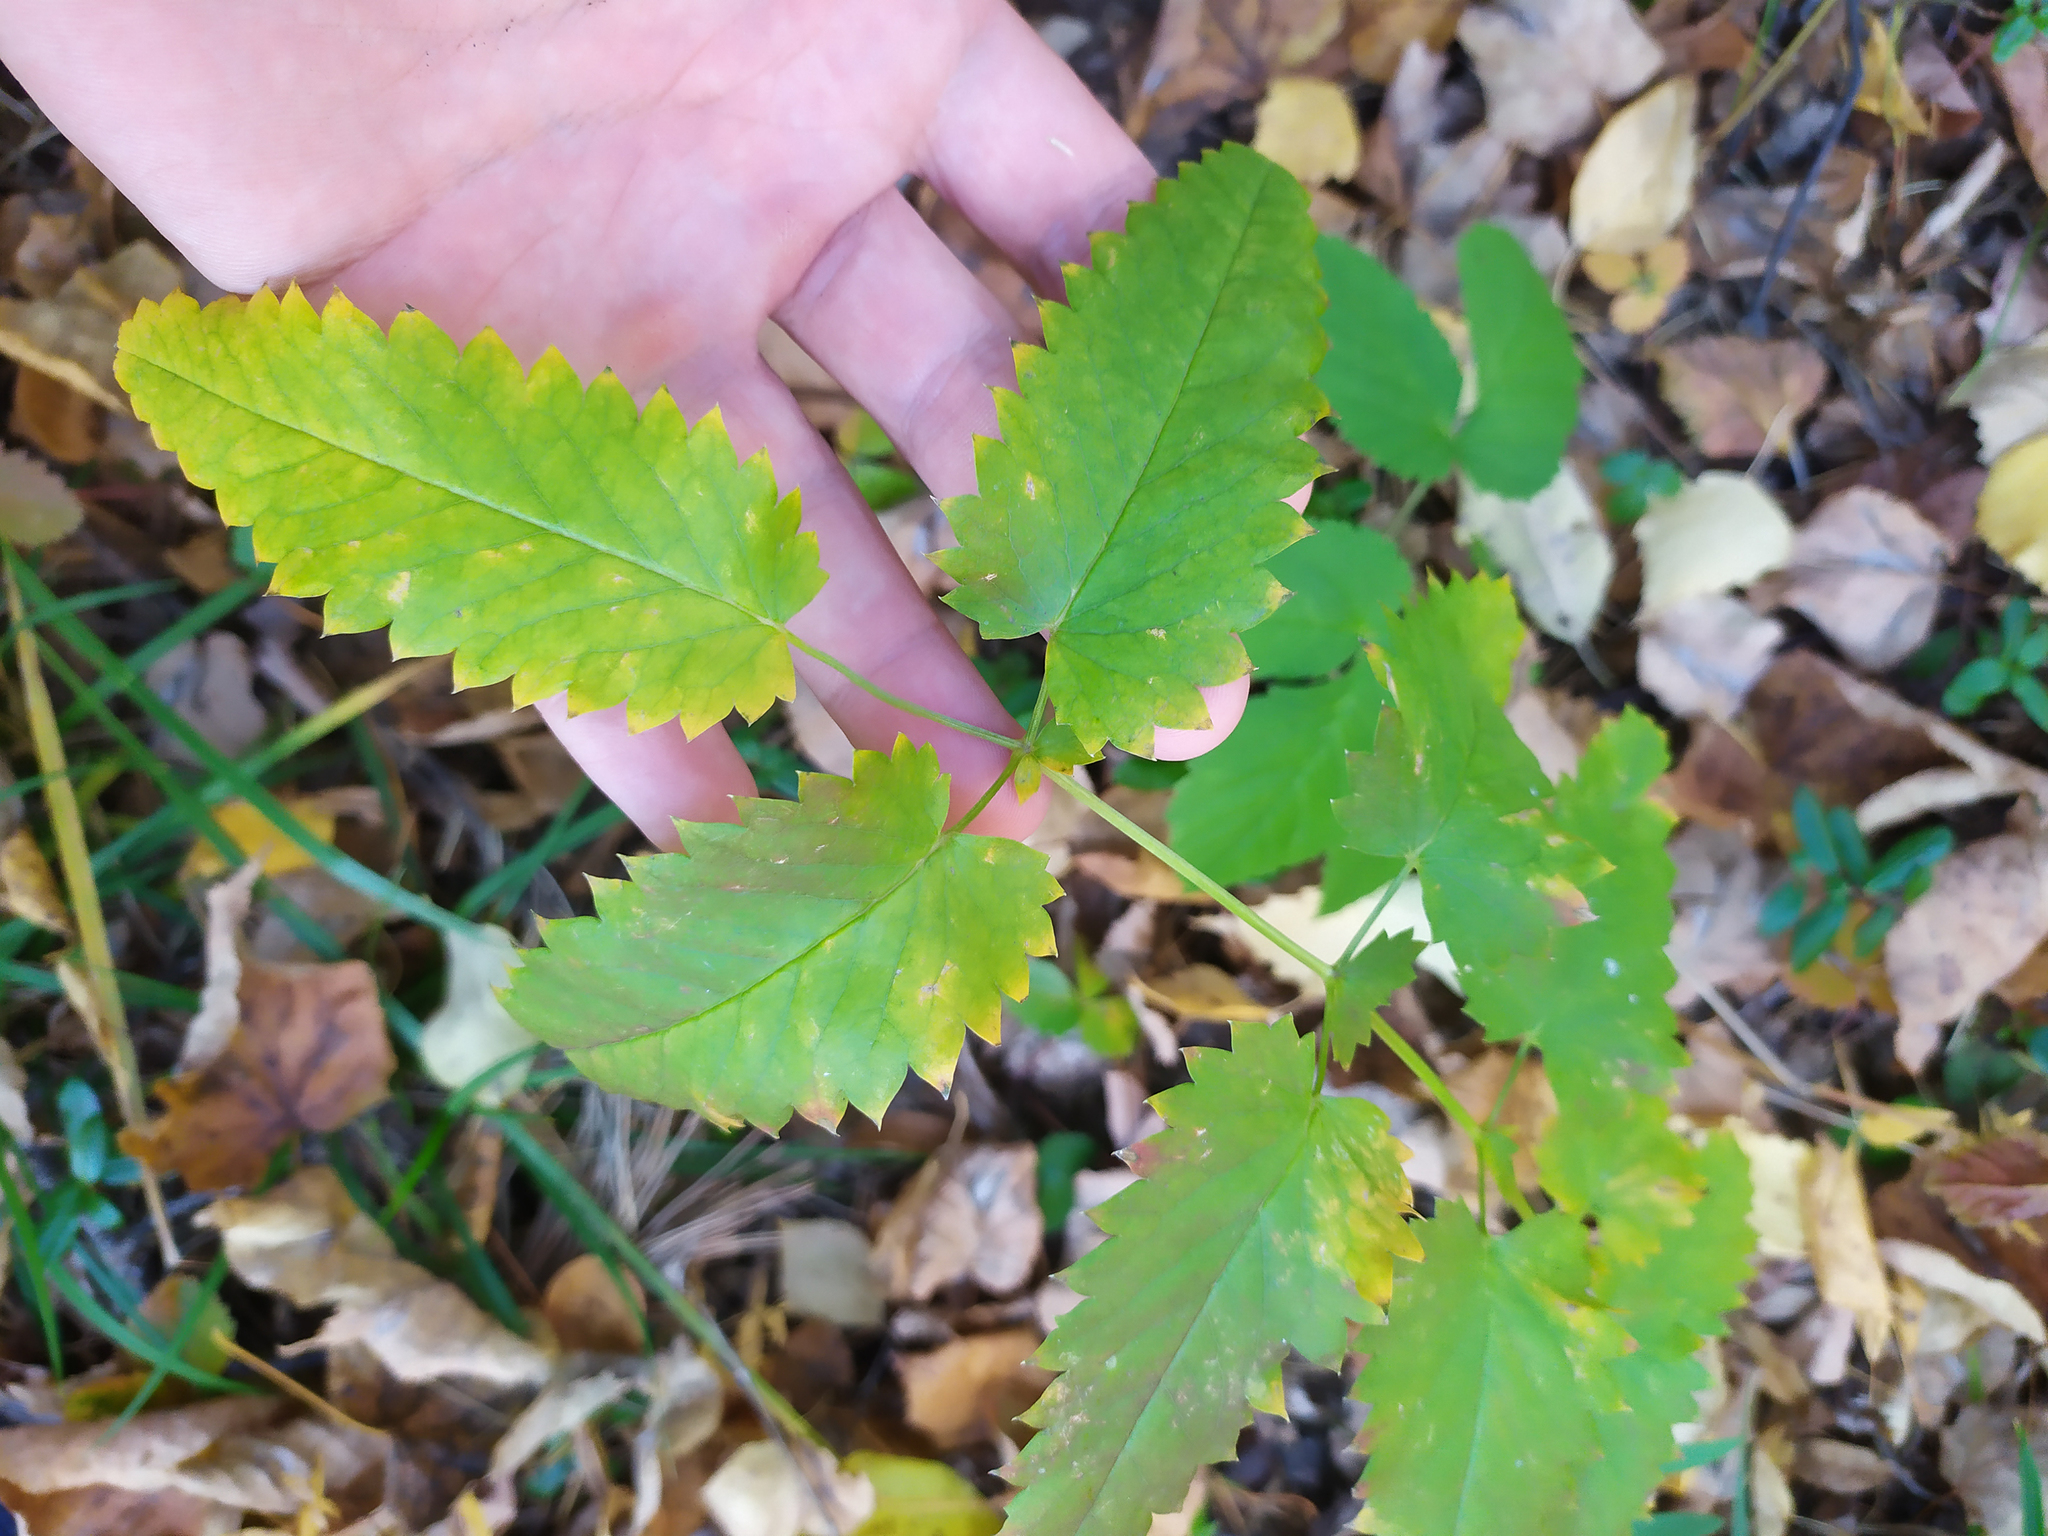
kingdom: Plantae
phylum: Tracheophyta
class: Magnoliopsida
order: Rosales
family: Rosaceae
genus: Sanguisorba
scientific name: Sanguisorba officinalis
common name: Great burnet
